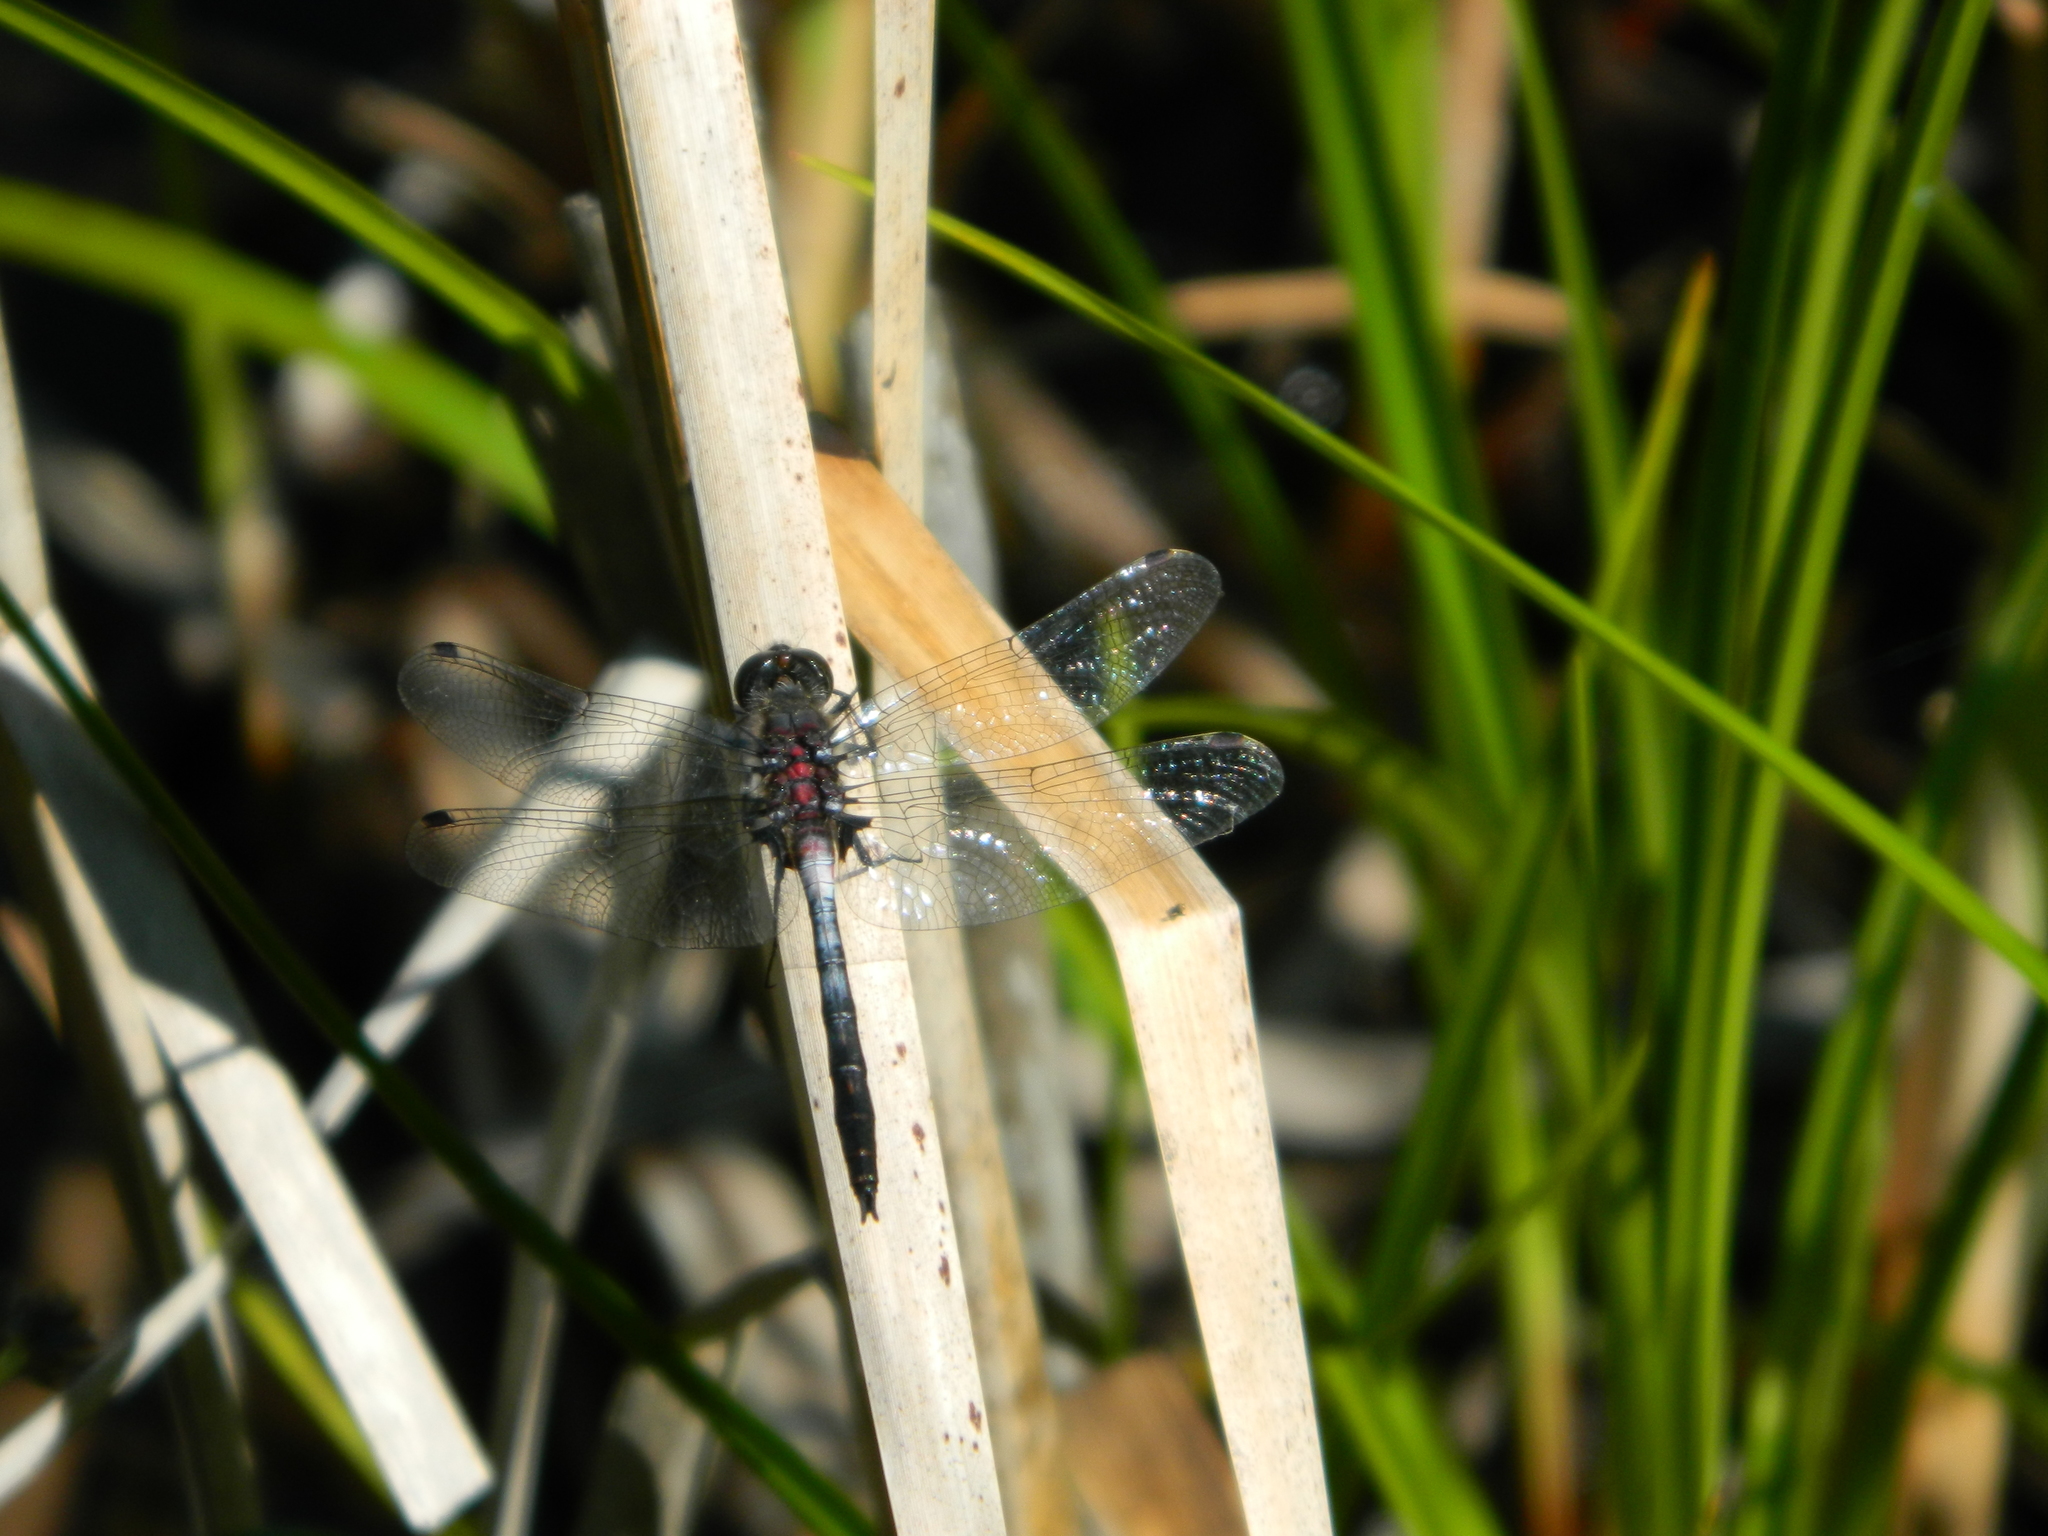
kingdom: Animalia
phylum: Arthropoda
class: Insecta
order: Odonata
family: Libellulidae
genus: Leucorrhinia
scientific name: Leucorrhinia proxima
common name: Belted whiteface
